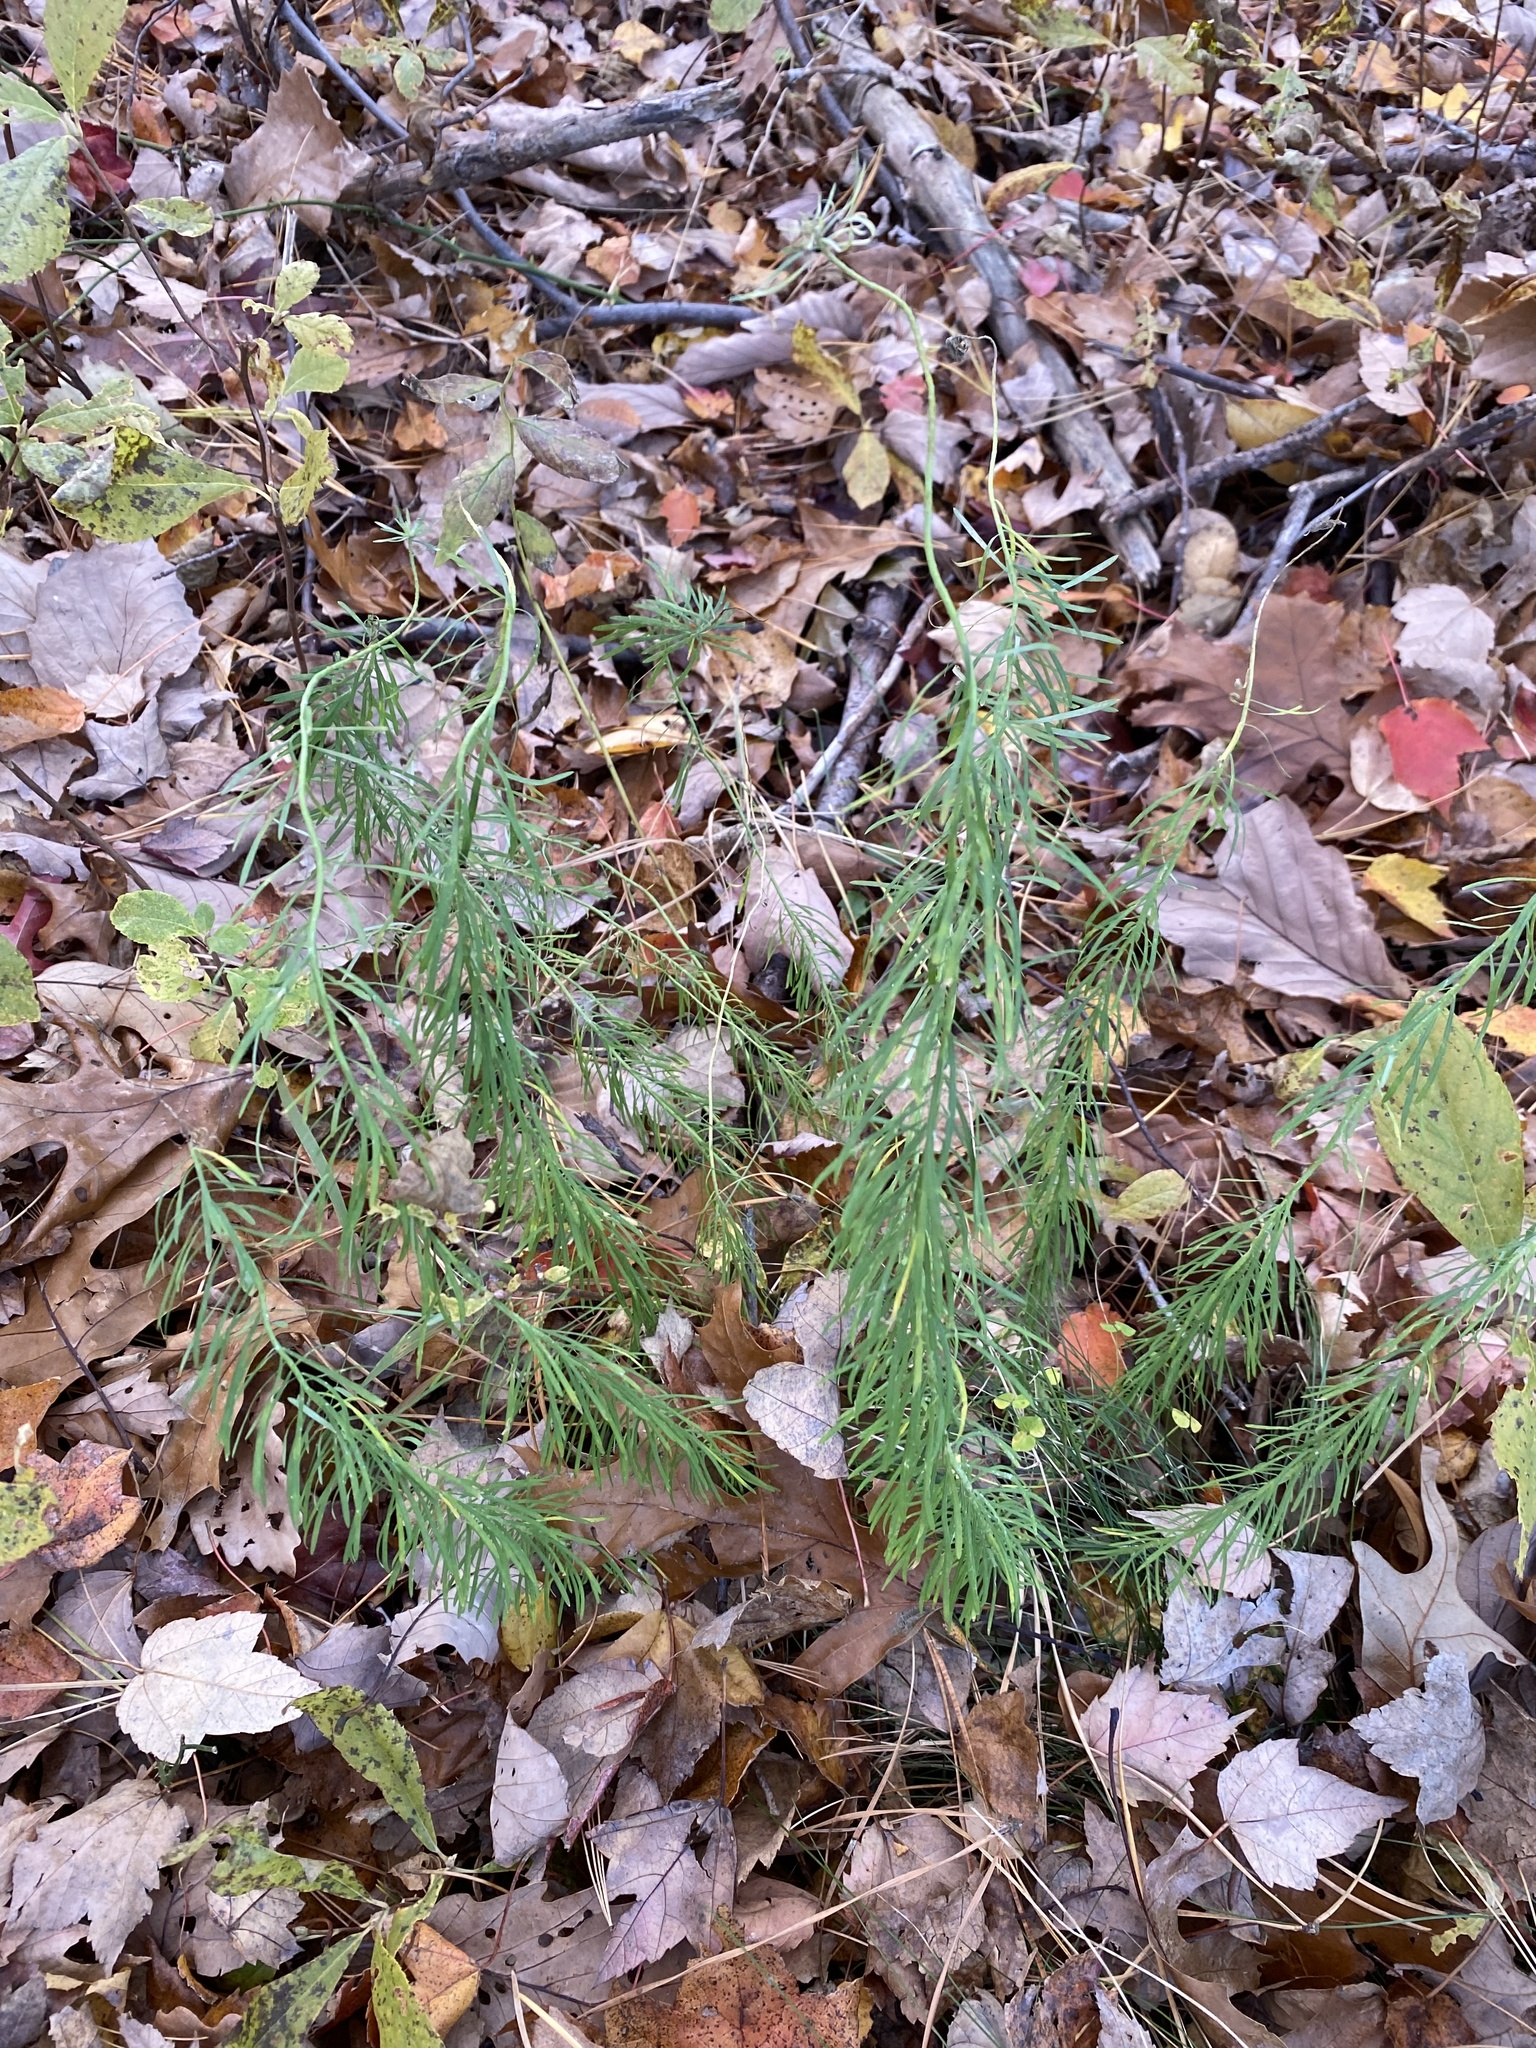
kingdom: Plantae
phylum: Tracheophyta
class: Magnoliopsida
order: Malpighiales
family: Euphorbiaceae
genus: Euphorbia
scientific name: Euphorbia cyparissias
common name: Cypress spurge
